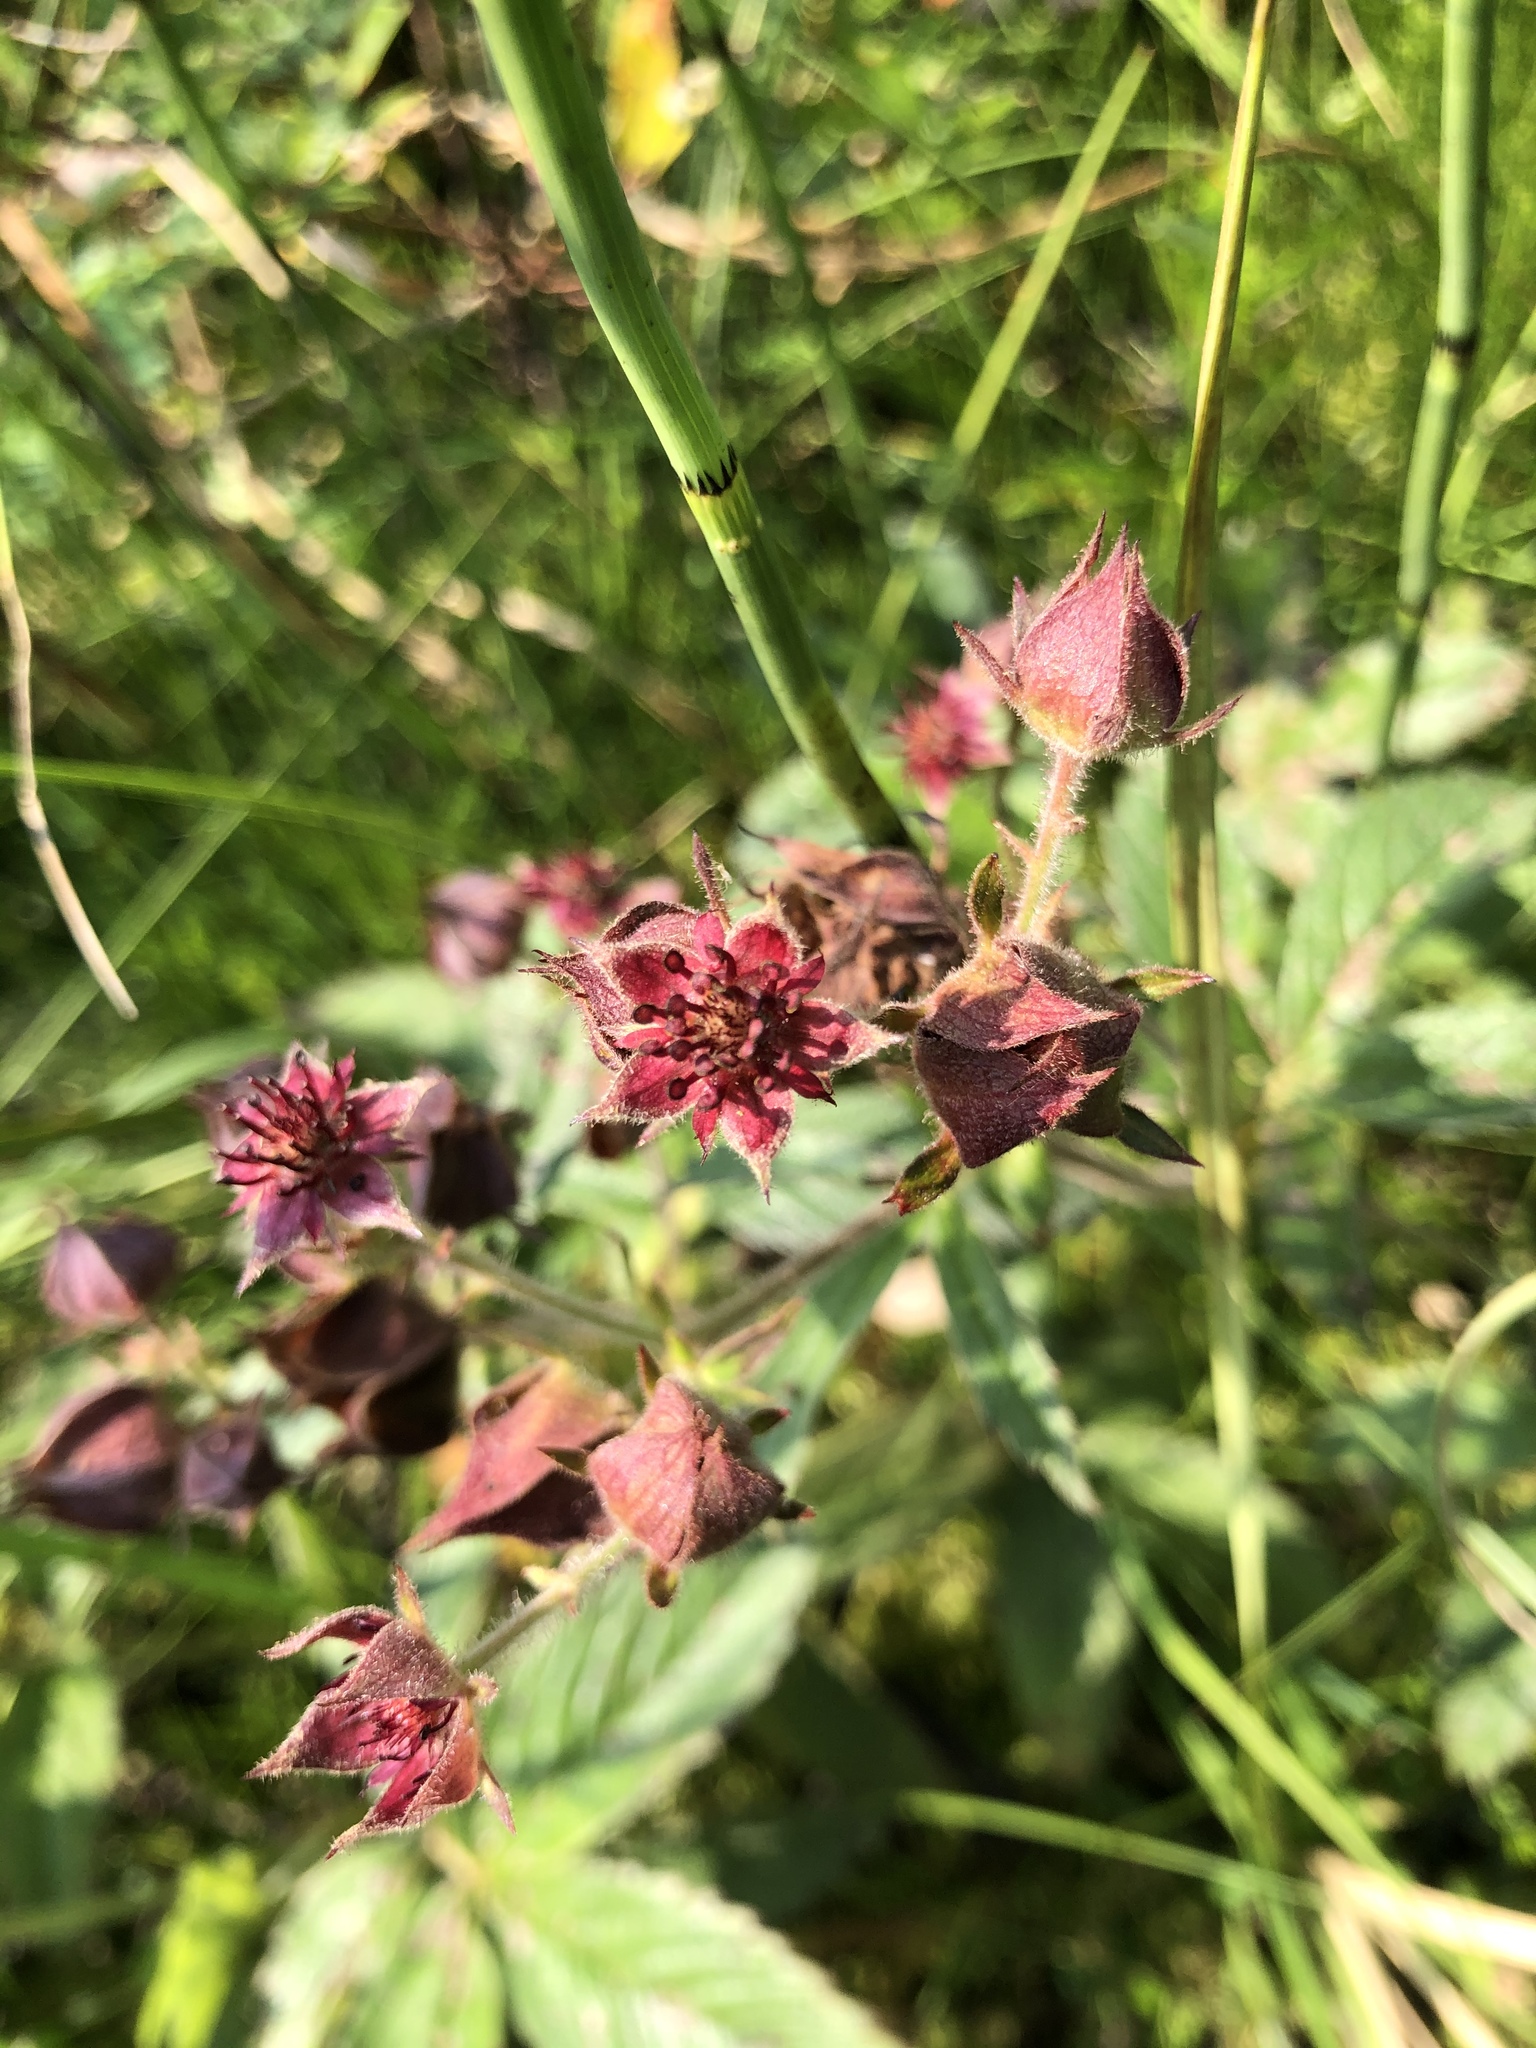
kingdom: Plantae
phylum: Tracheophyta
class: Magnoliopsida
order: Rosales
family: Rosaceae
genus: Comarum
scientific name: Comarum palustre
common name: Marsh cinquefoil
